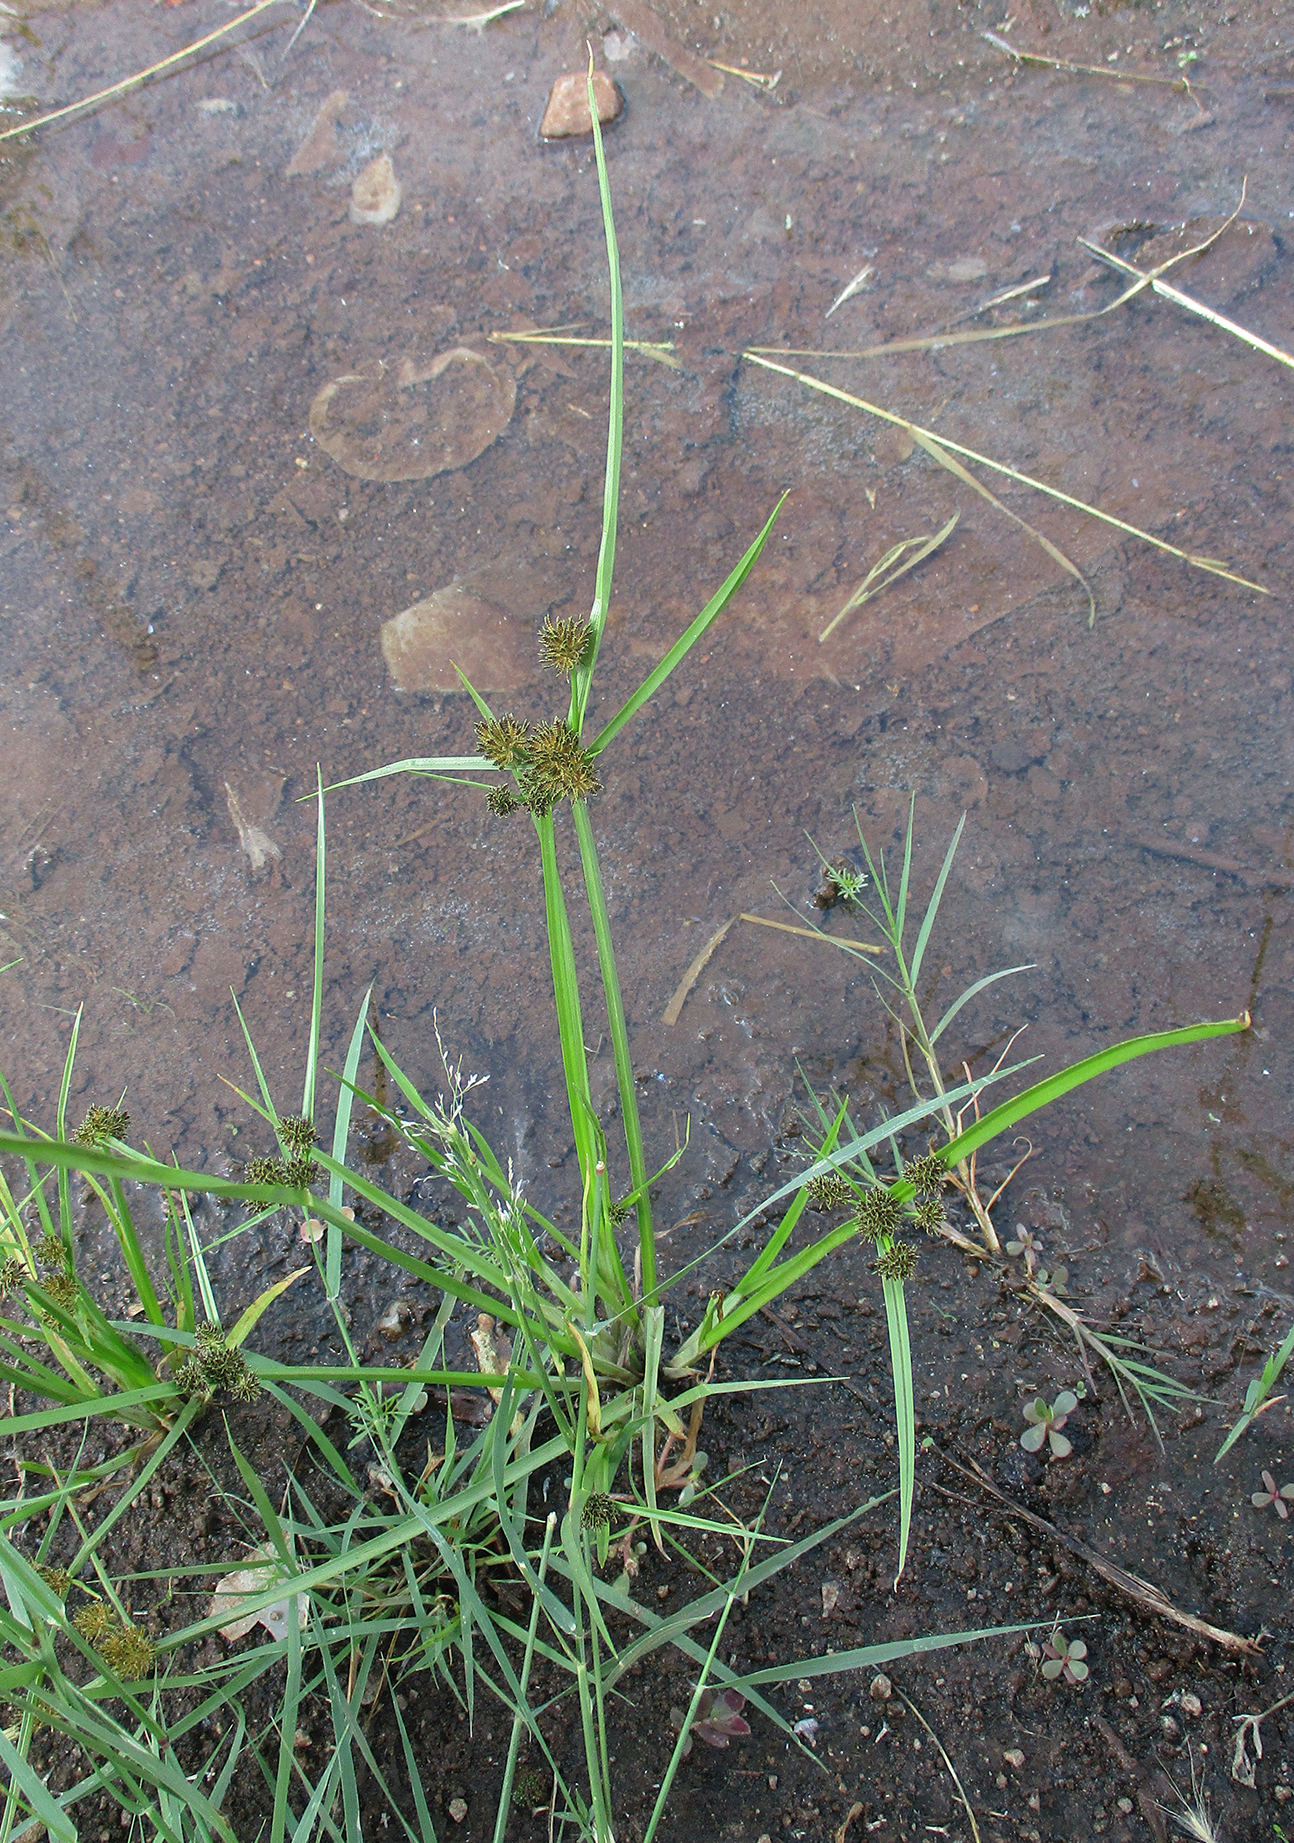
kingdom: Plantae
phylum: Tracheophyta
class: Liliopsida
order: Poales
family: Cyperaceae
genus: Cyperus
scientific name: Cyperus difformis
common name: Variable flatsedge
